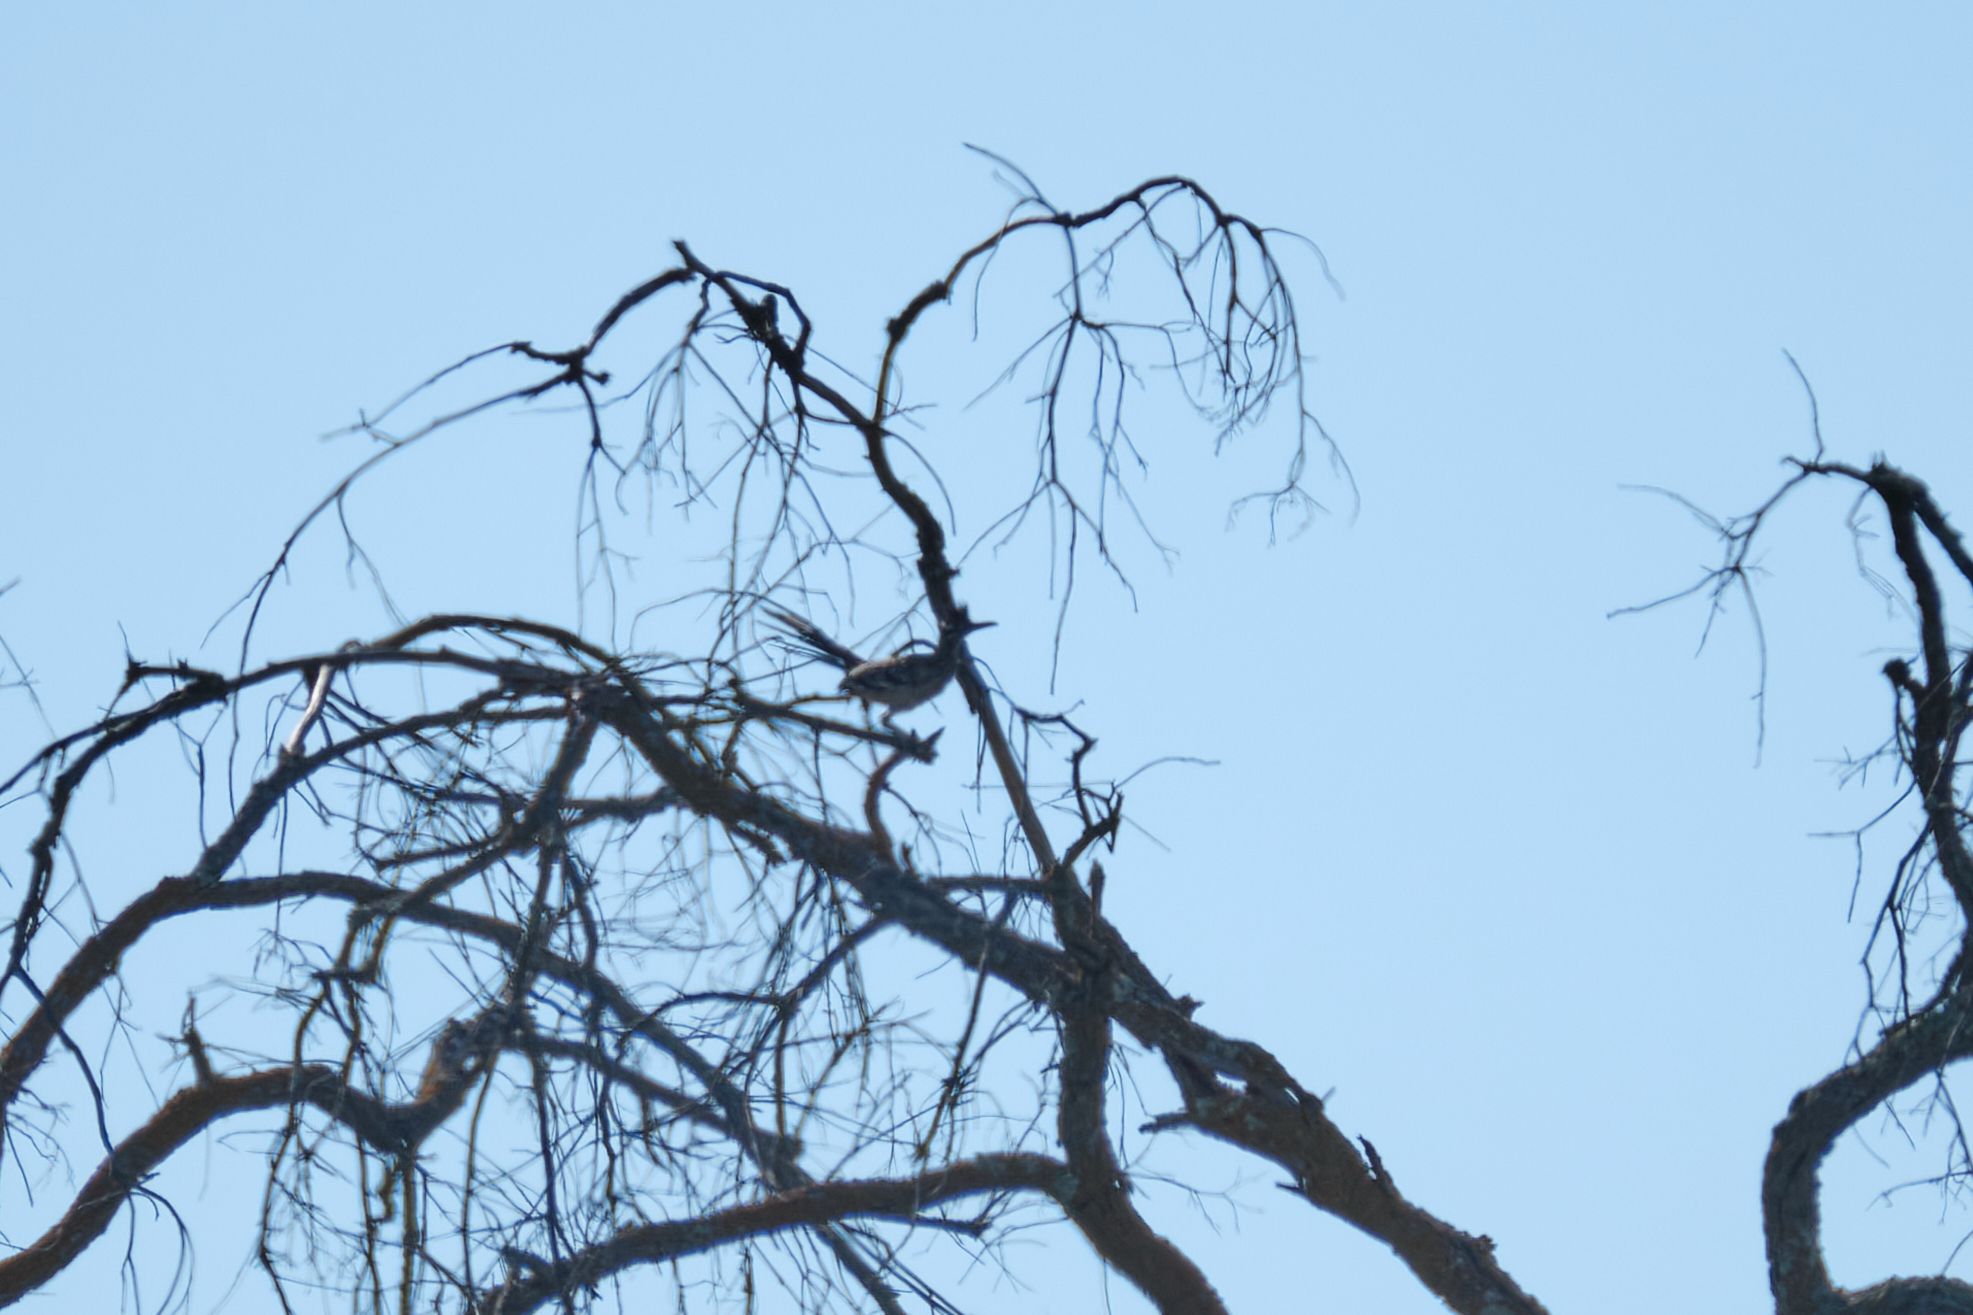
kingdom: Animalia
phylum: Chordata
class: Aves
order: Cuculiformes
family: Cuculidae
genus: Geococcyx
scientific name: Geococcyx californianus
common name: Greater roadrunner
